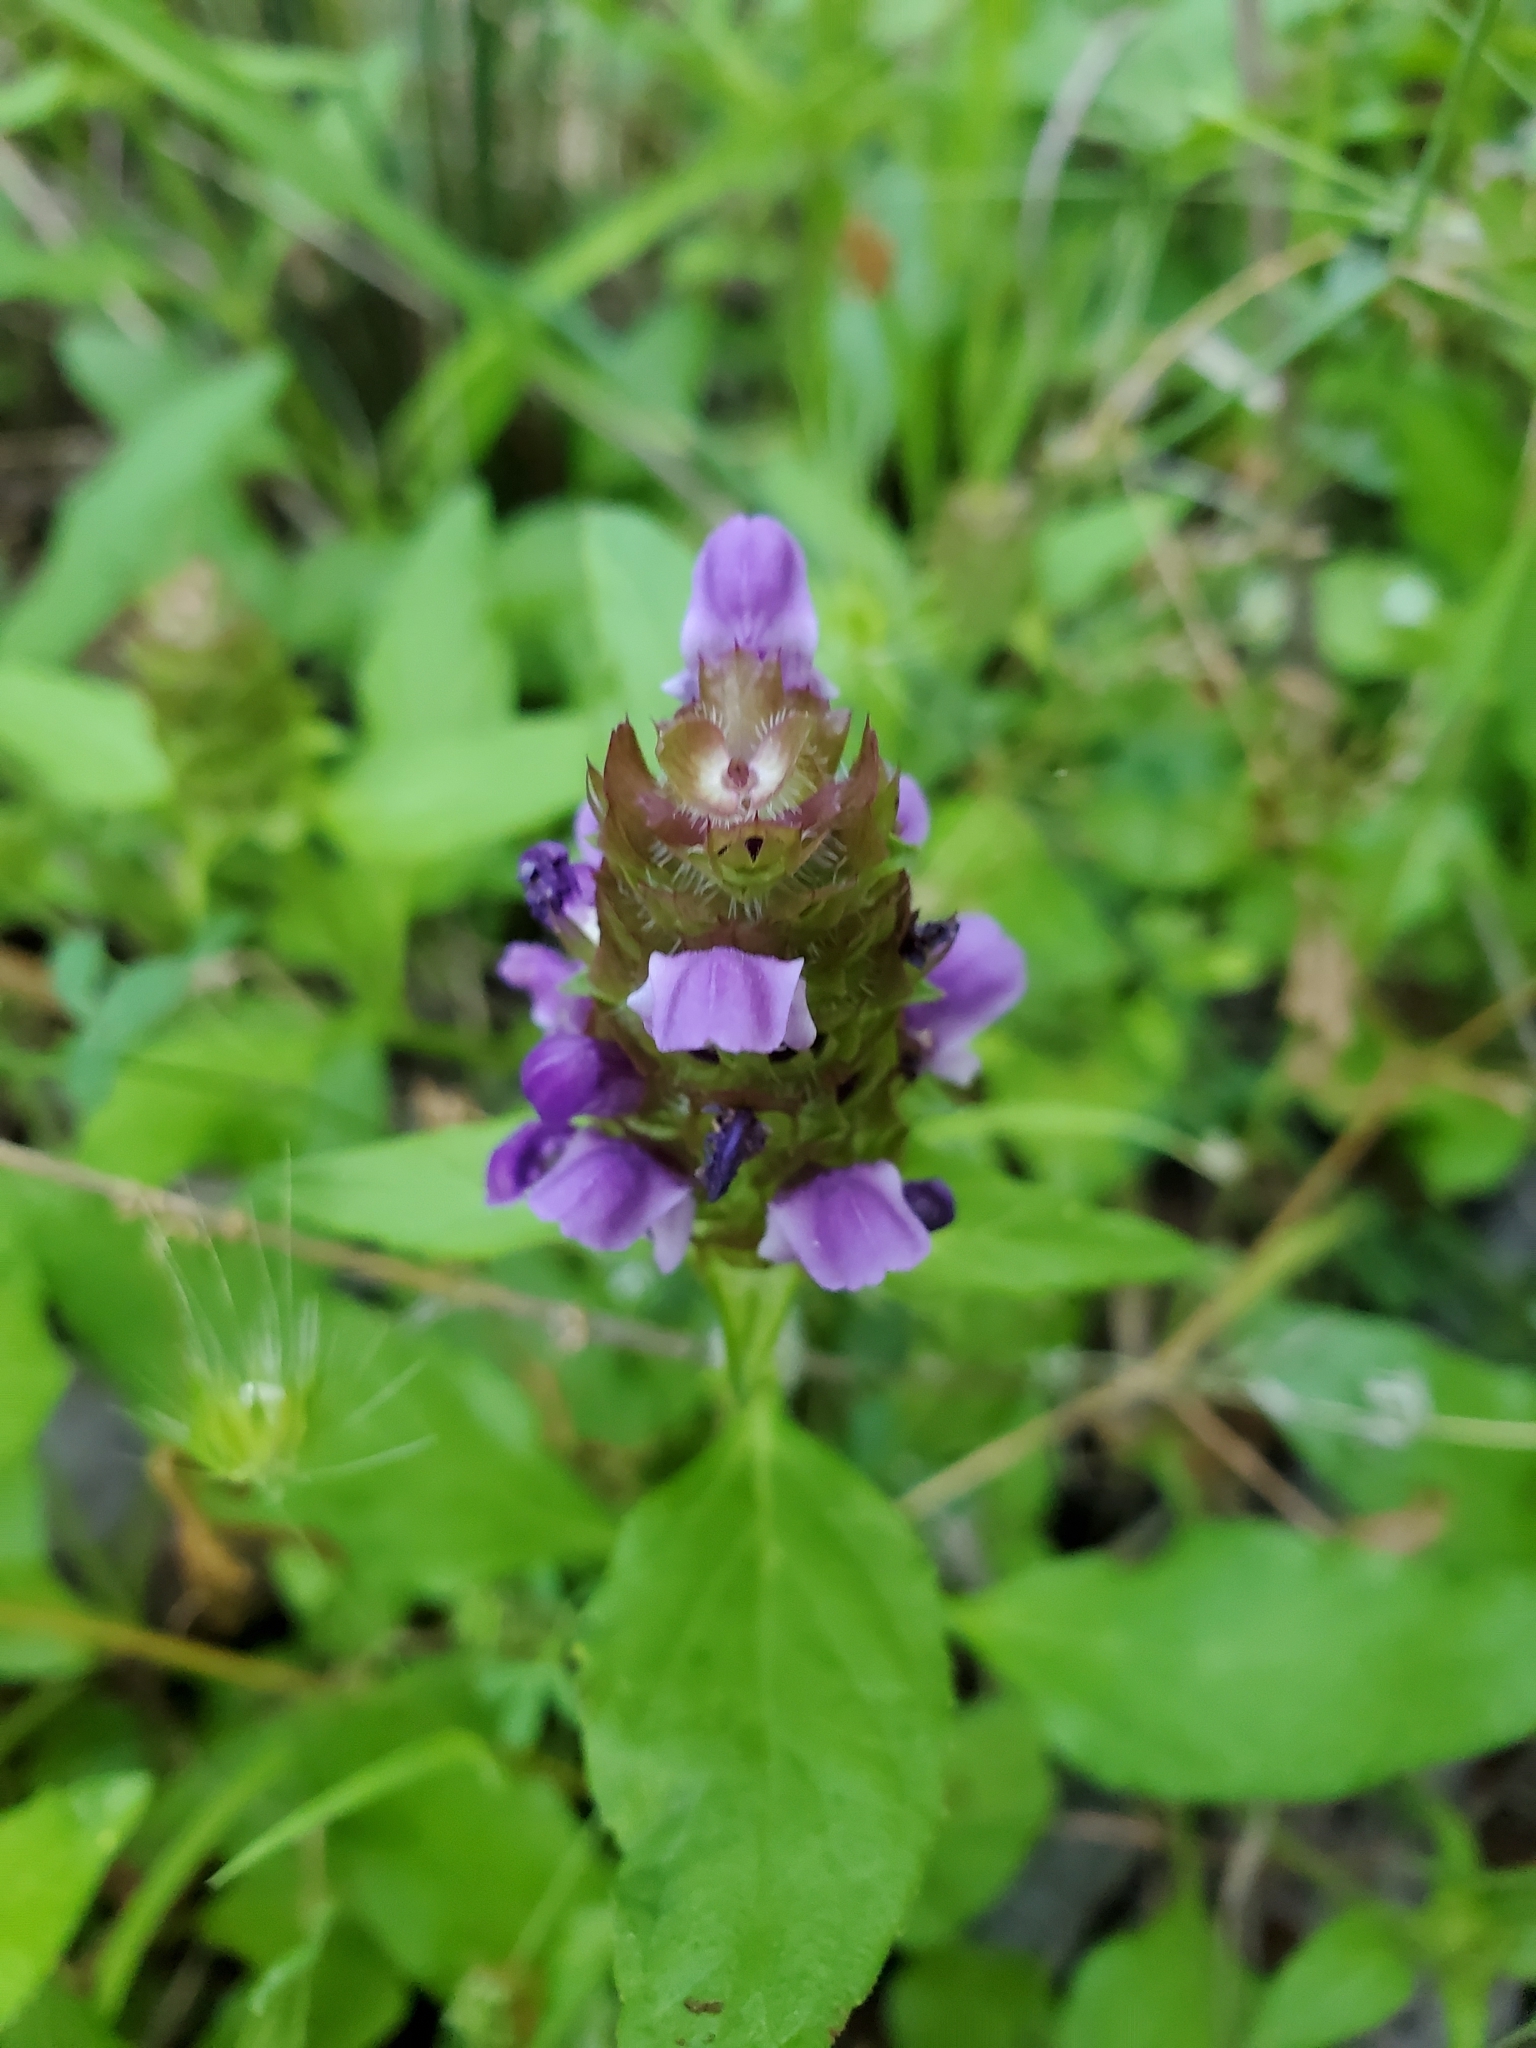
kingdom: Plantae
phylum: Tracheophyta
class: Magnoliopsida
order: Lamiales
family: Lamiaceae
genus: Prunella
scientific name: Prunella vulgaris
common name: Heal-all
